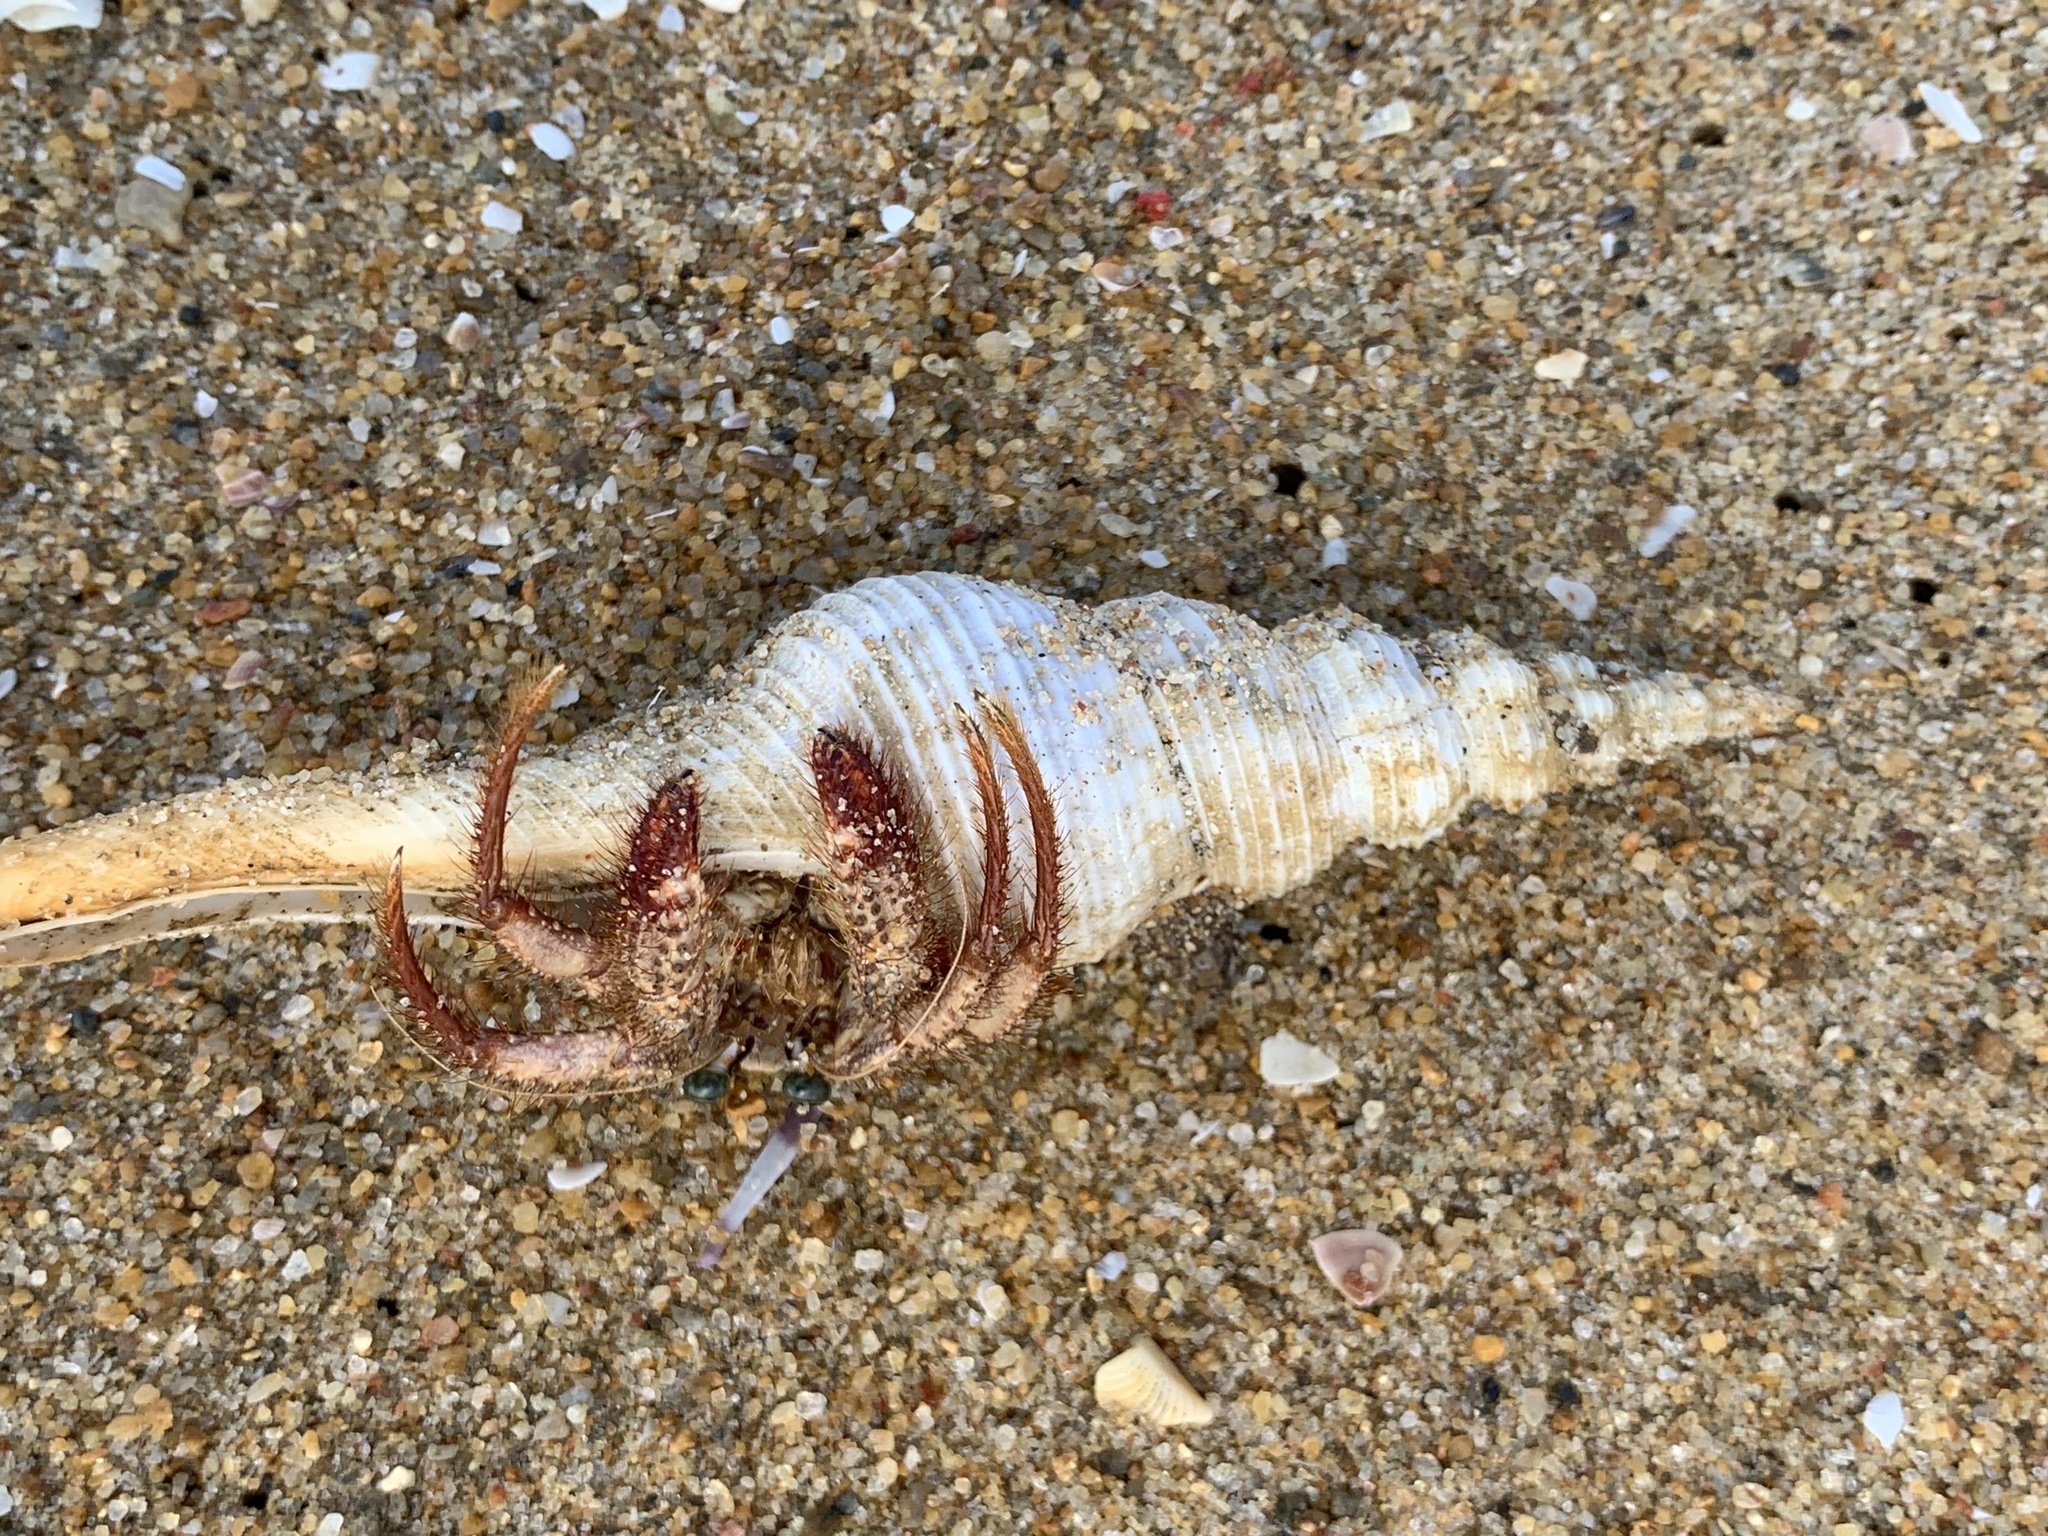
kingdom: Animalia
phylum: Mollusca
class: Gastropoda
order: Neogastropoda
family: Fasciolariidae
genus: Fusinus
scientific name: Fusinus forceps
